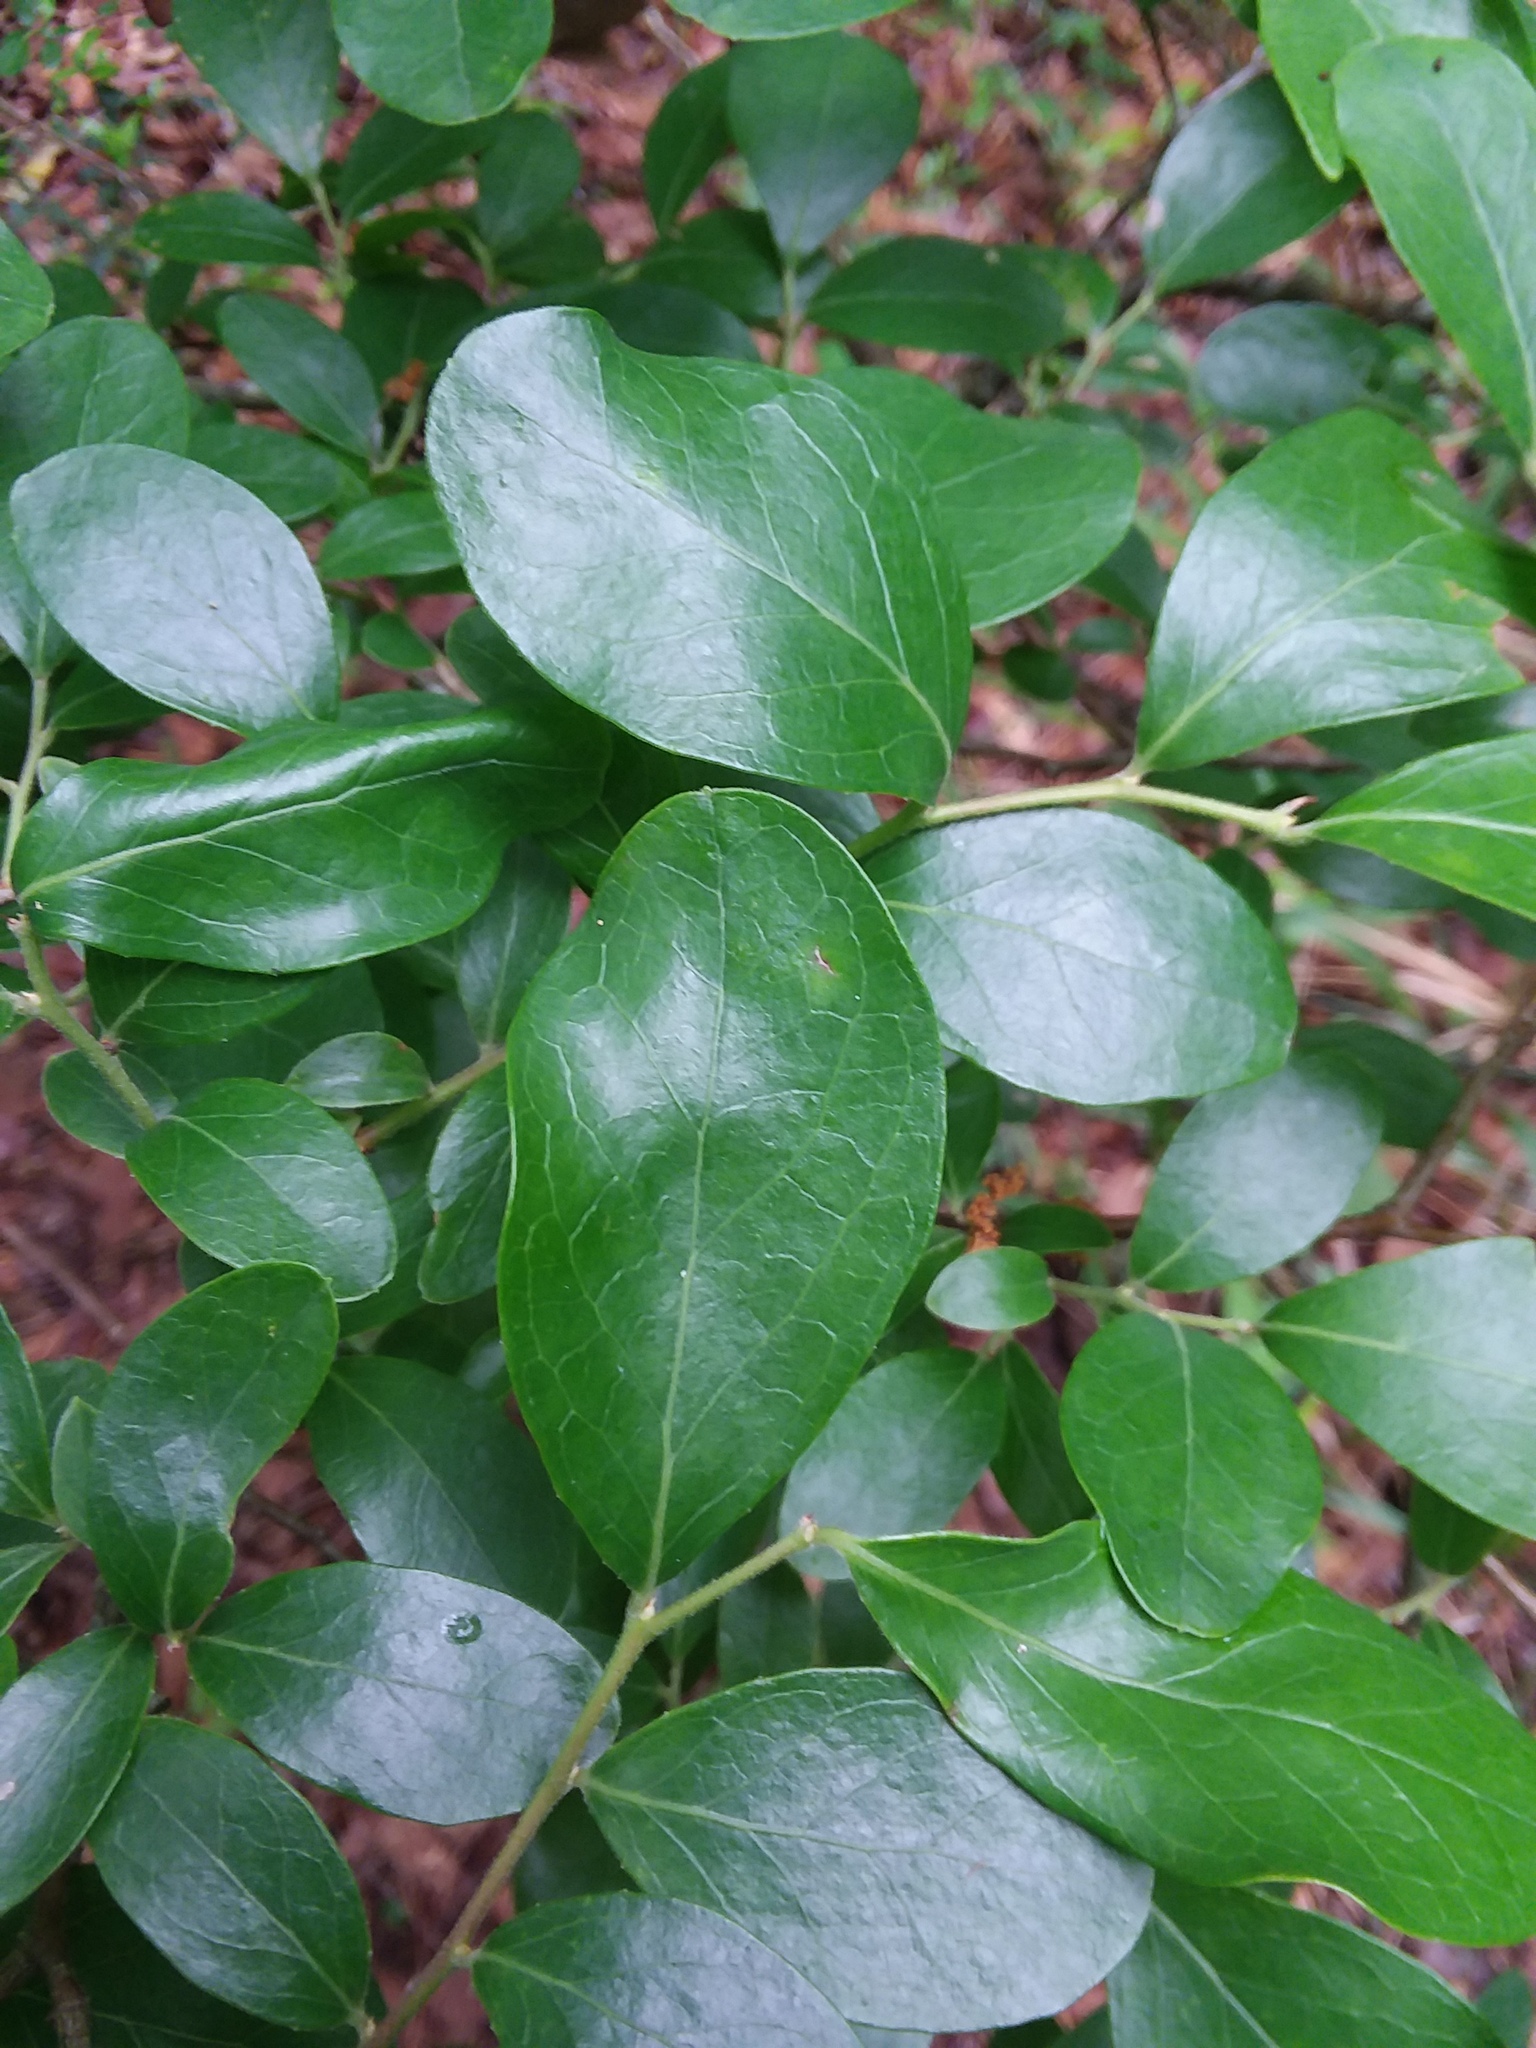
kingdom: Plantae
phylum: Tracheophyta
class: Magnoliopsida
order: Ericales
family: Ericaceae
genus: Vaccinium
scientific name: Vaccinium arboreum
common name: Farkleberry
